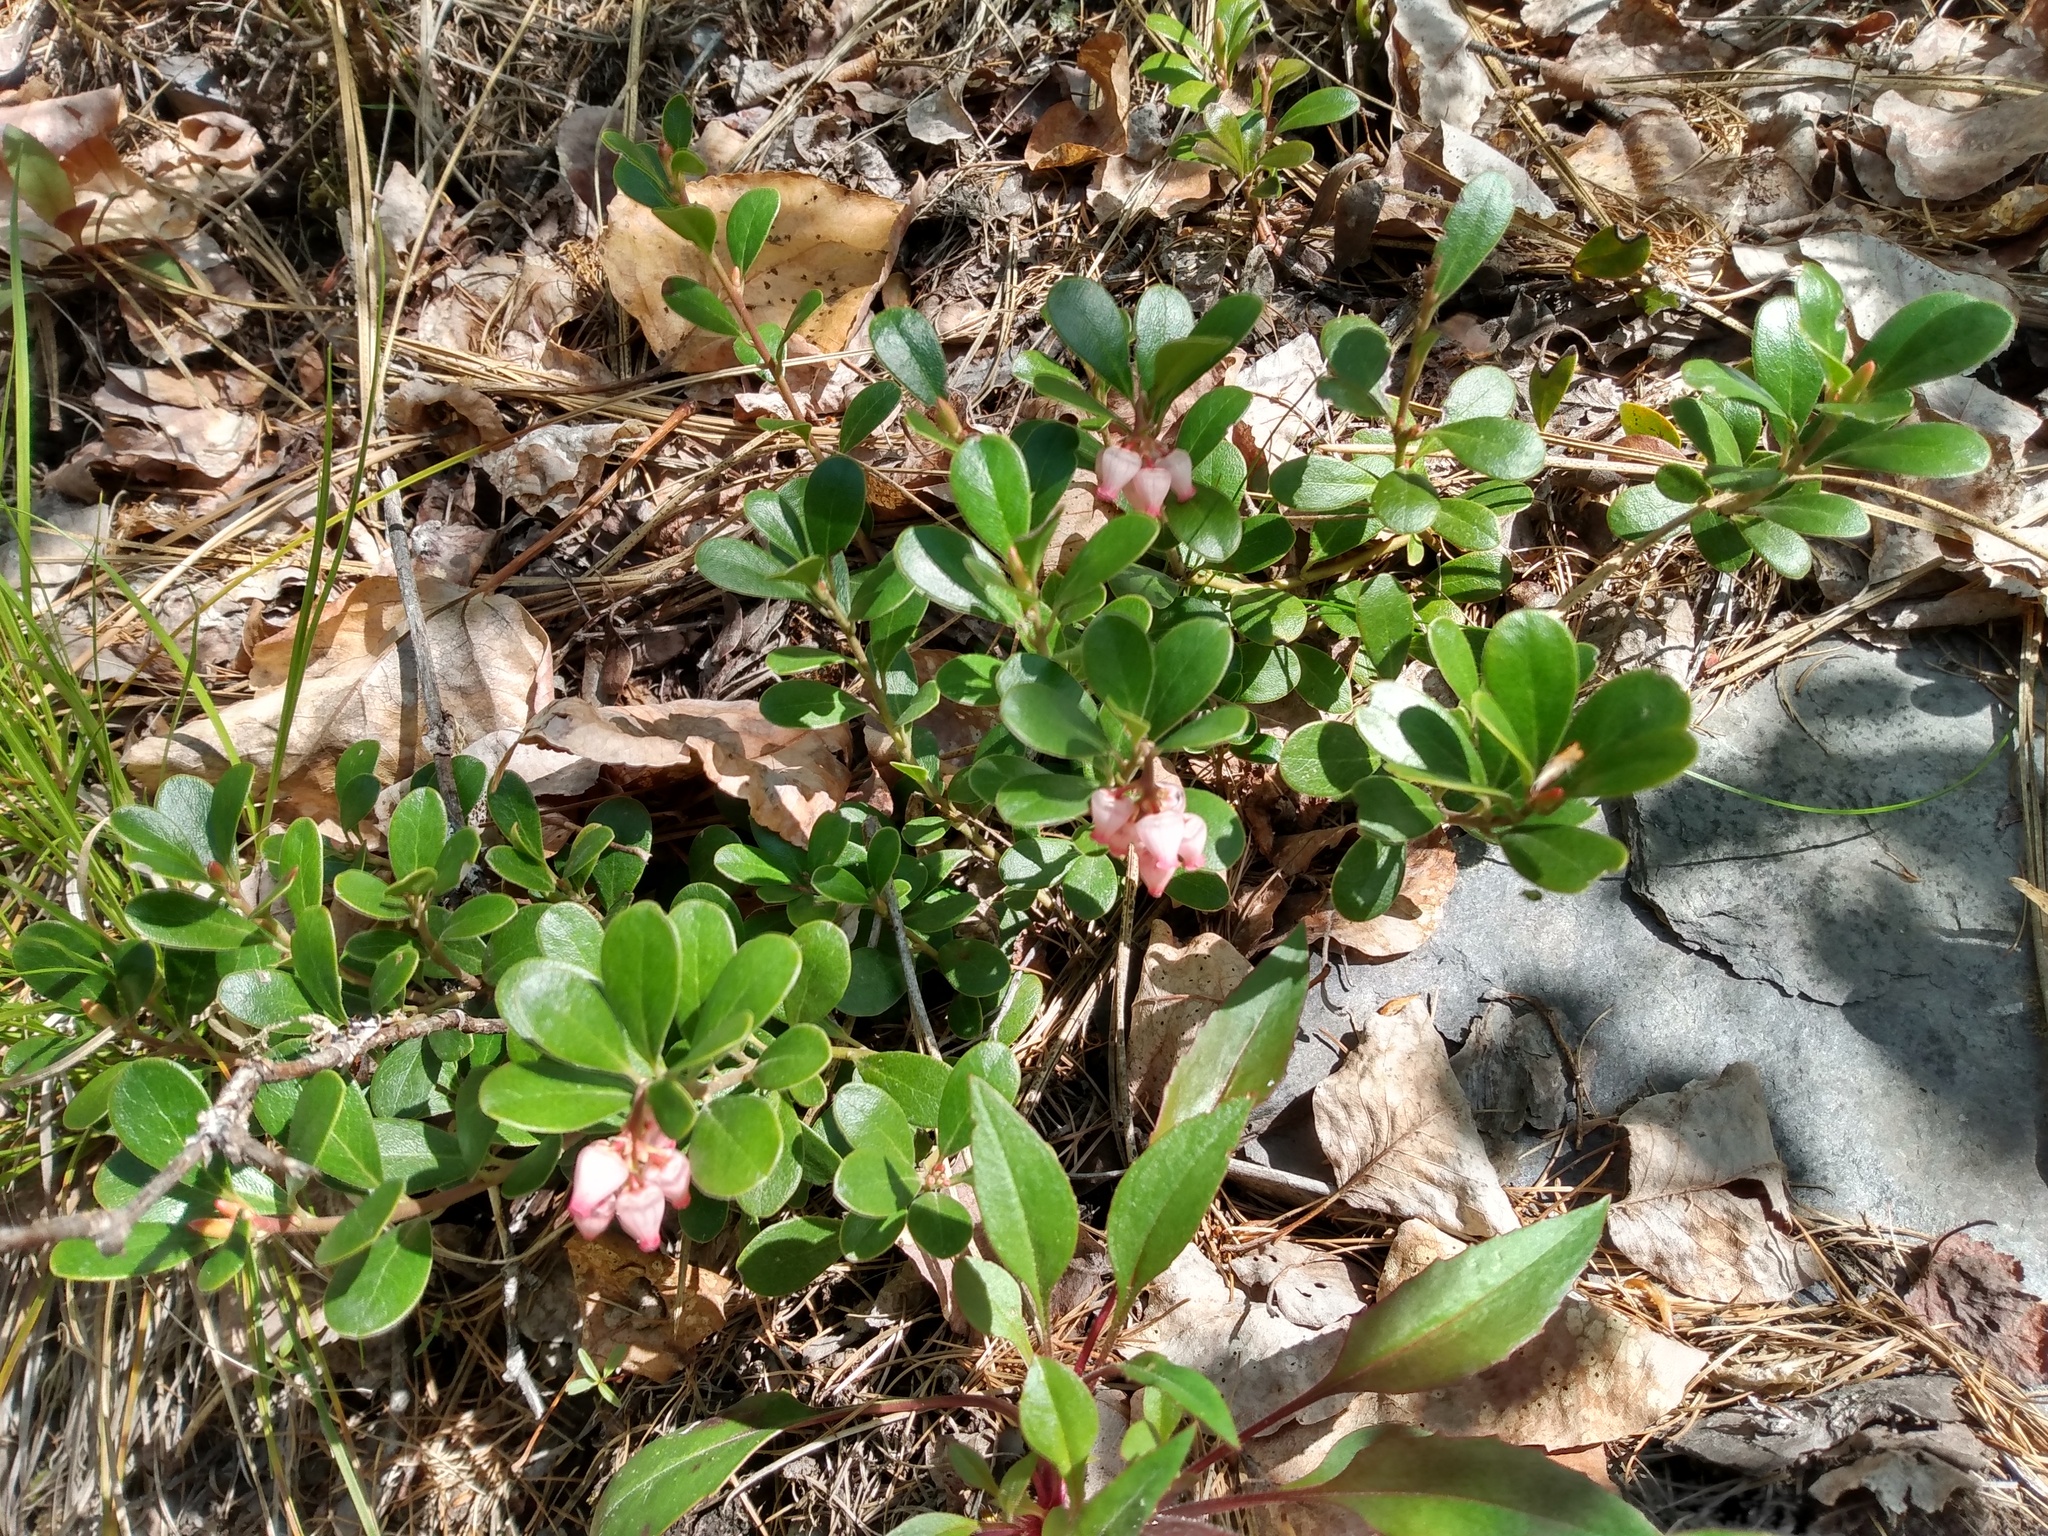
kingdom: Plantae
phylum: Tracheophyta
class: Magnoliopsida
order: Ericales
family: Ericaceae
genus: Arctostaphylos
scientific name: Arctostaphylos uva-ursi
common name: Bearberry
